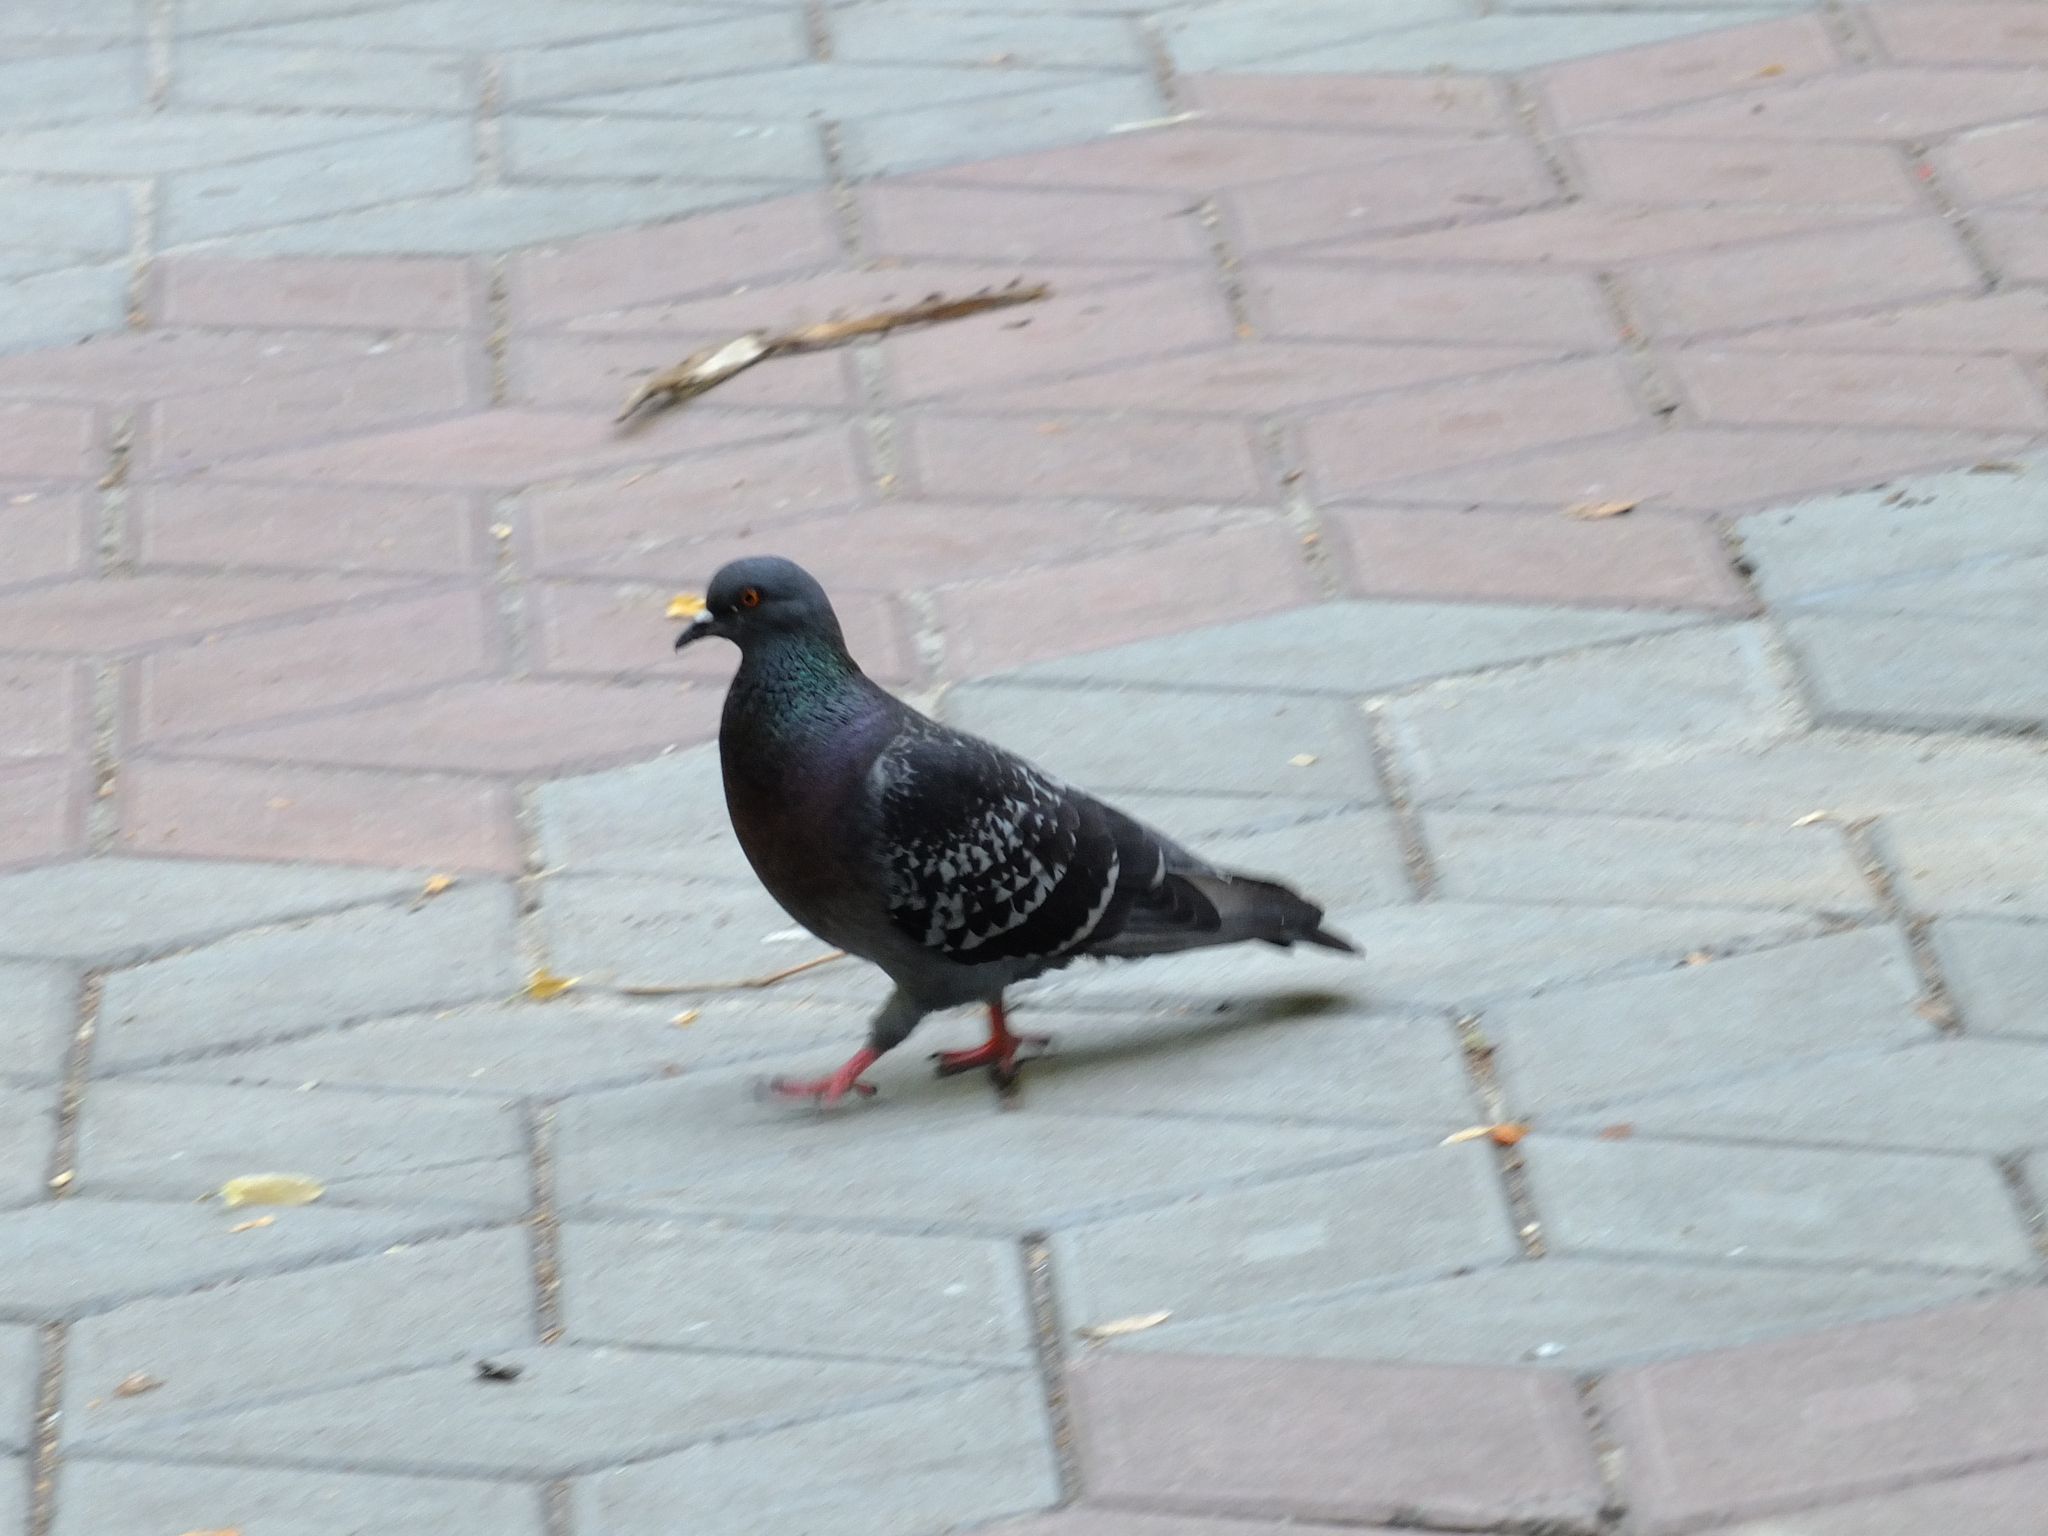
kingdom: Animalia
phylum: Chordata
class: Aves
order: Columbiformes
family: Columbidae
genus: Columba
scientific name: Columba livia
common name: Rock pigeon
